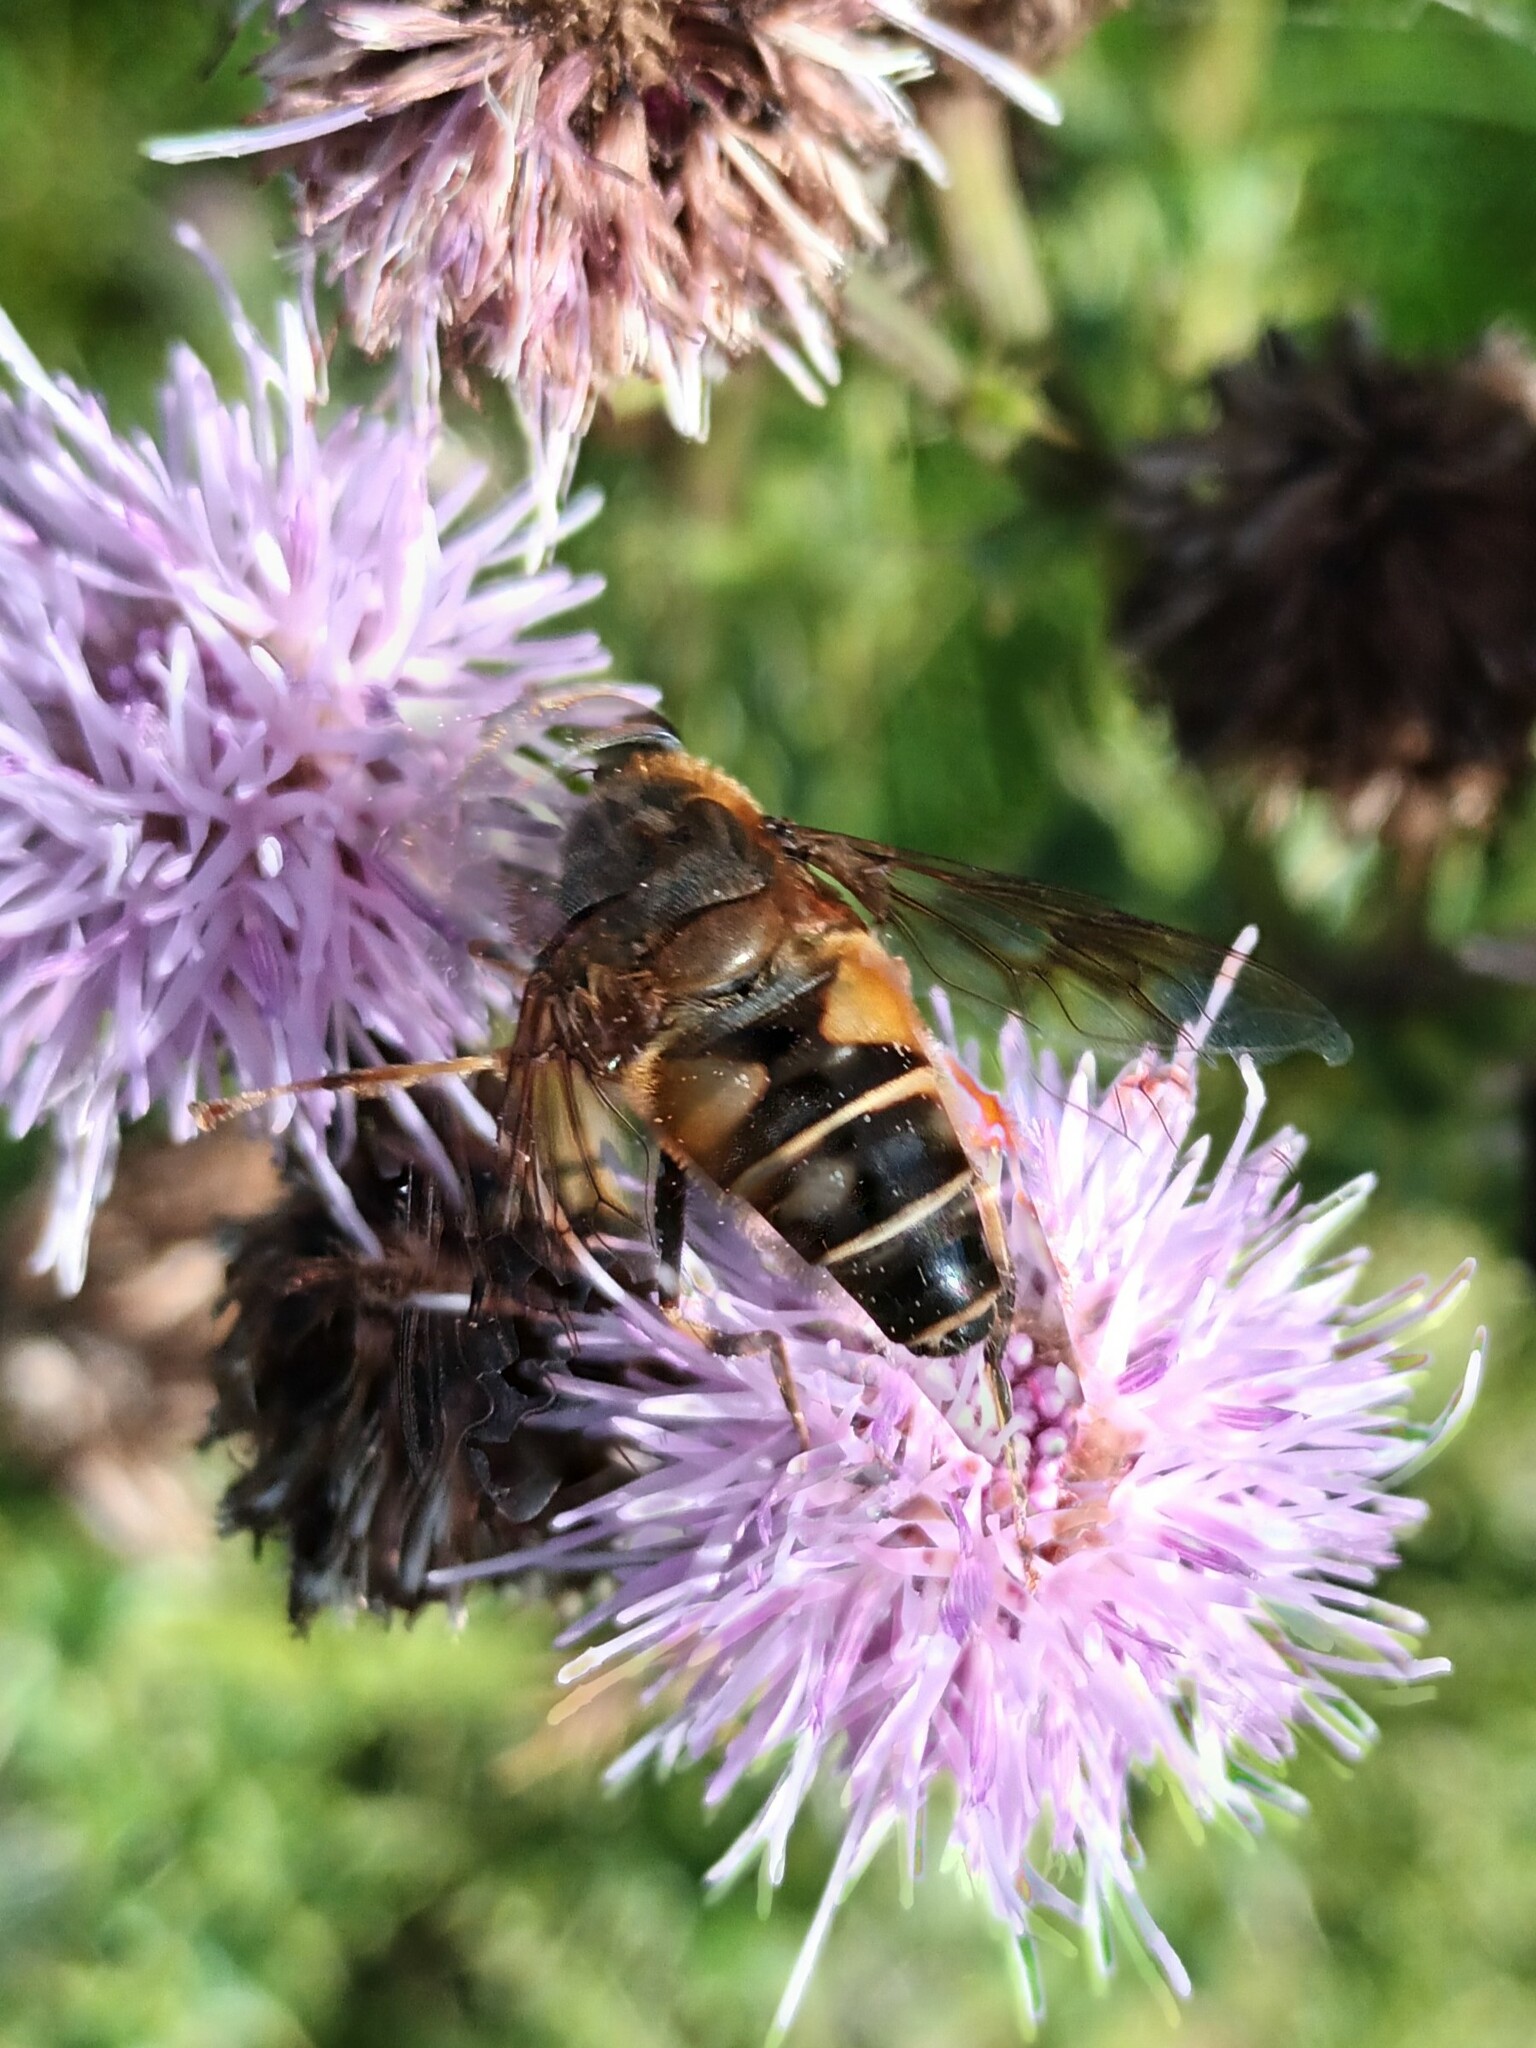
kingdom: Animalia
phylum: Arthropoda
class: Insecta
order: Diptera
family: Syrphidae
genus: Eristalis
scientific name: Eristalis pertinax
